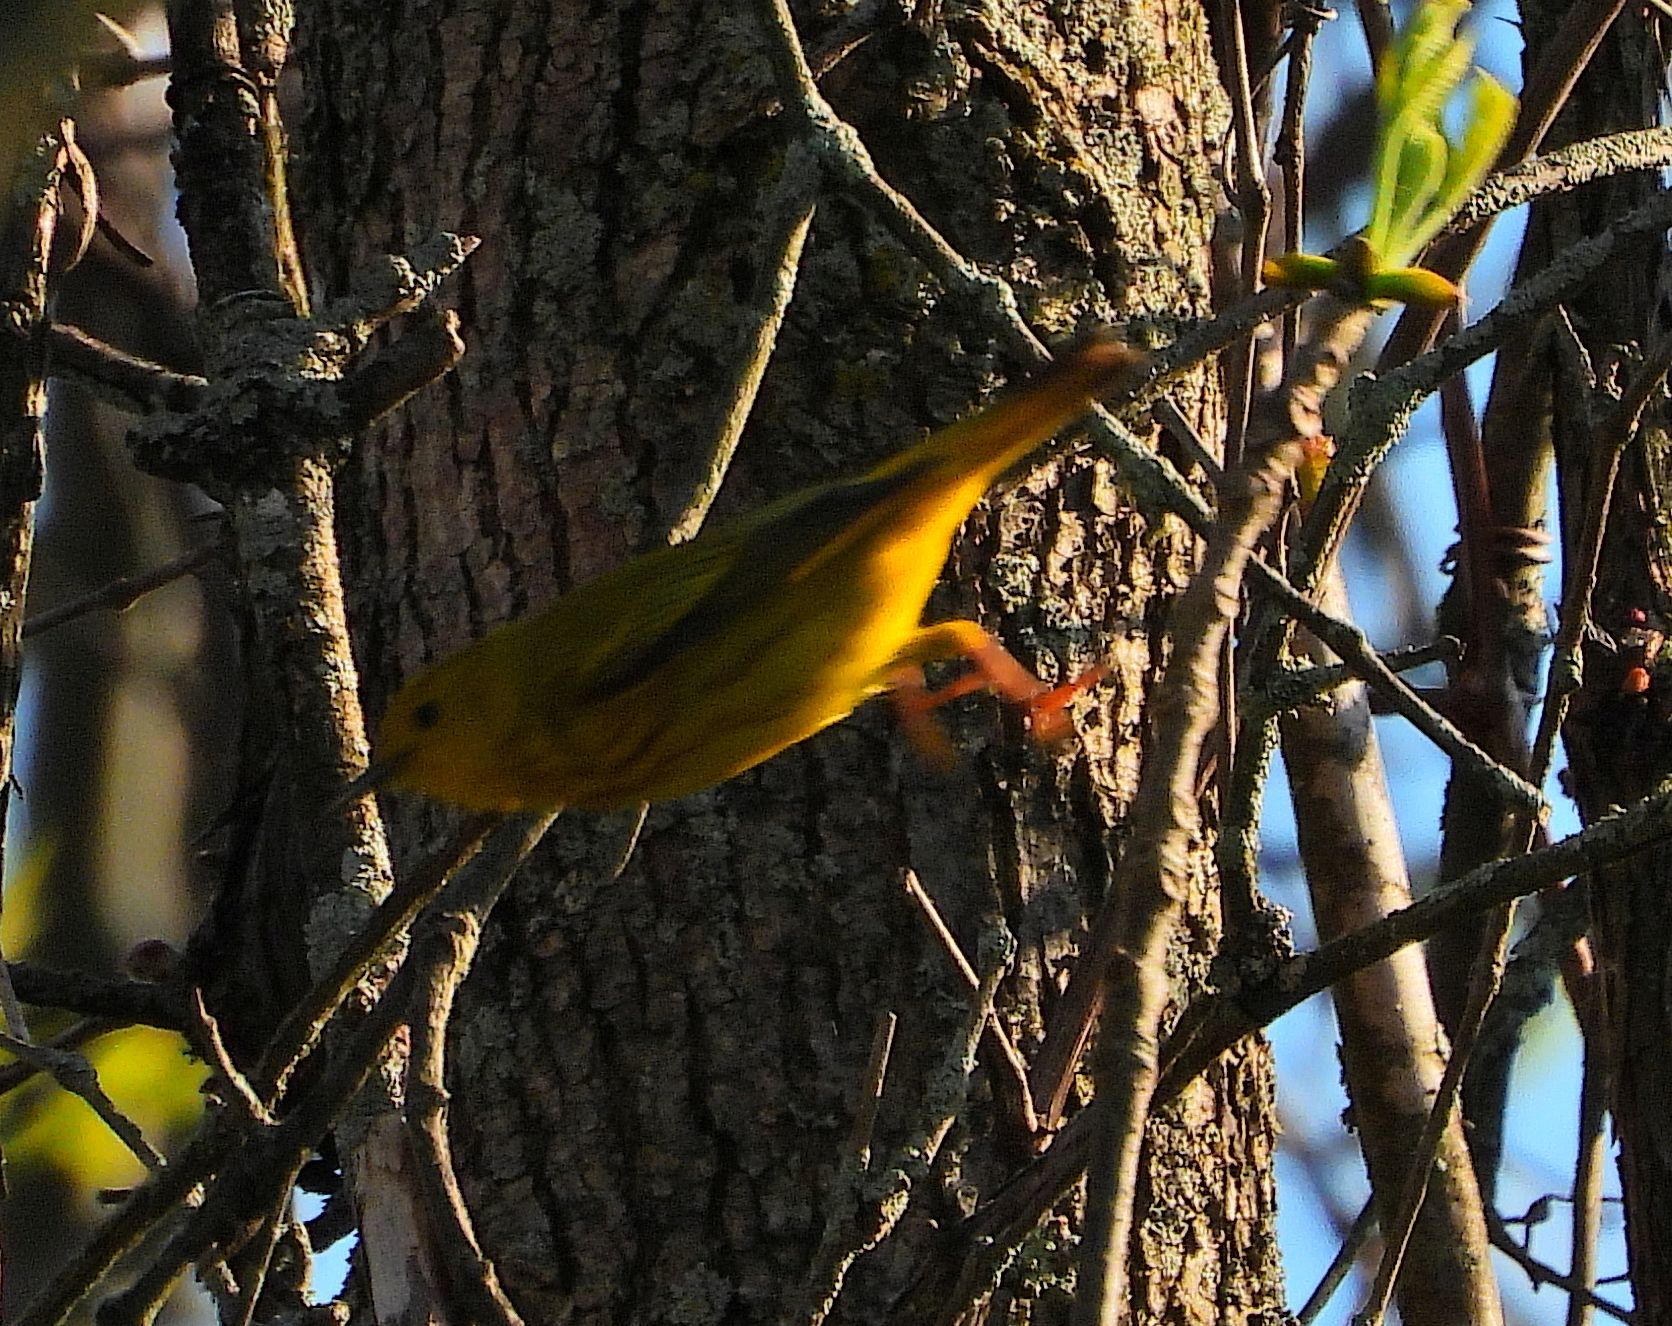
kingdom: Animalia
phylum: Chordata
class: Aves
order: Passeriformes
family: Parulidae
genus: Setophaga
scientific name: Setophaga petechia
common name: Yellow warbler
